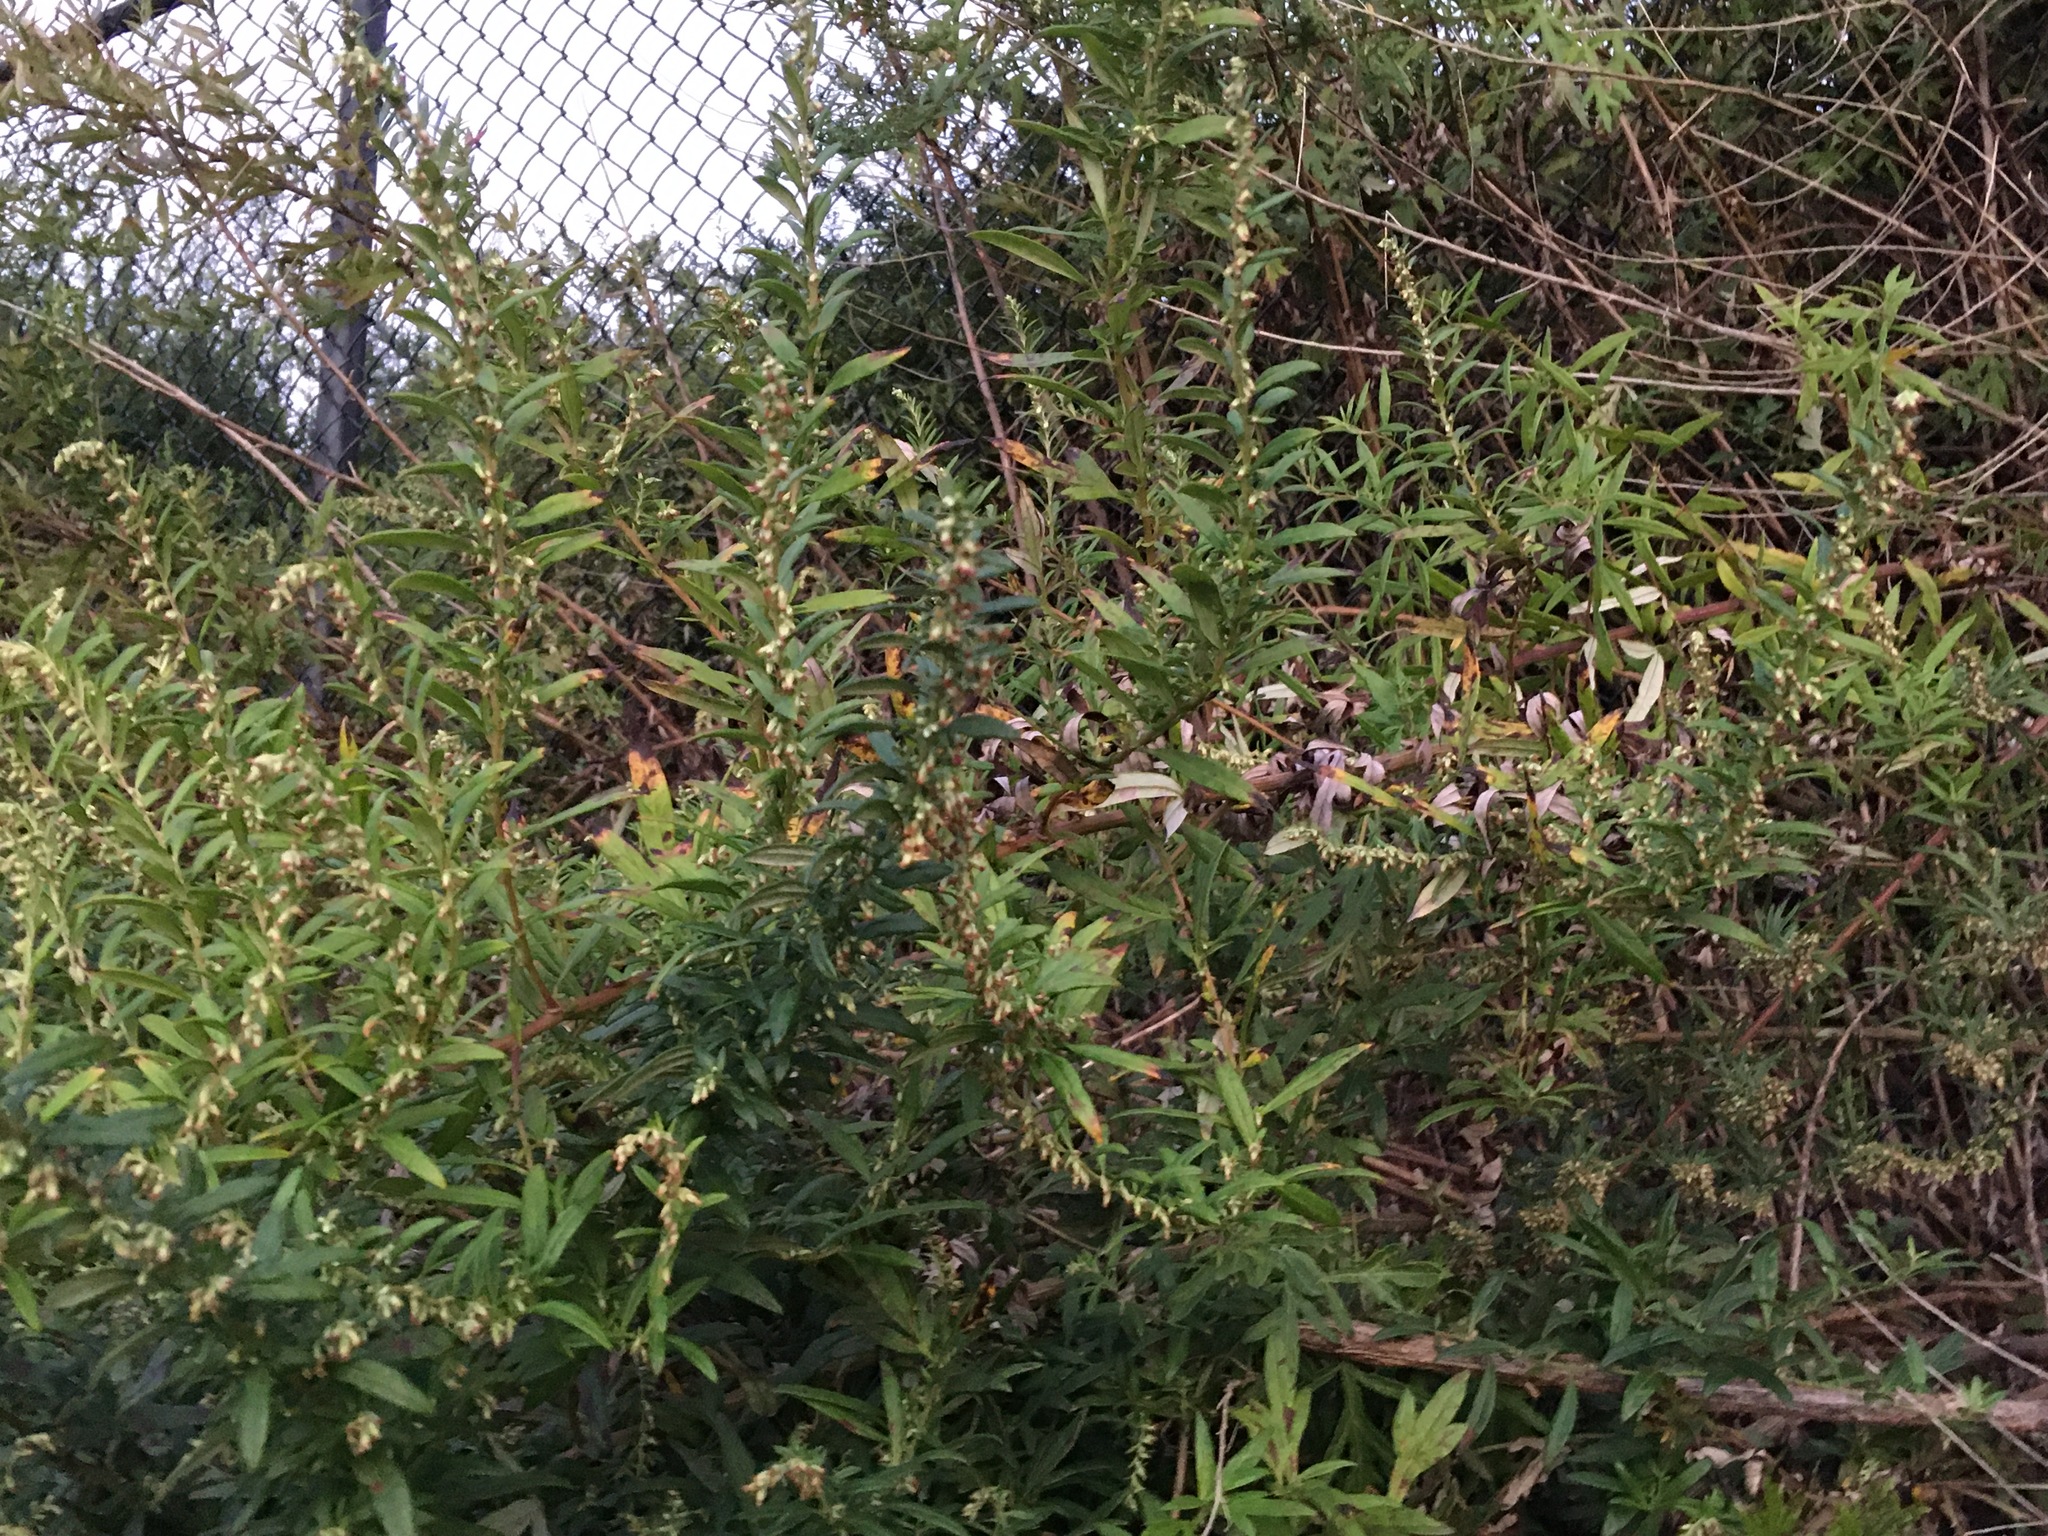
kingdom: Plantae
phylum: Tracheophyta
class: Magnoliopsida
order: Asterales
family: Asteraceae
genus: Artemisia
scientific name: Artemisia vulgaris
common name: Mugwort
